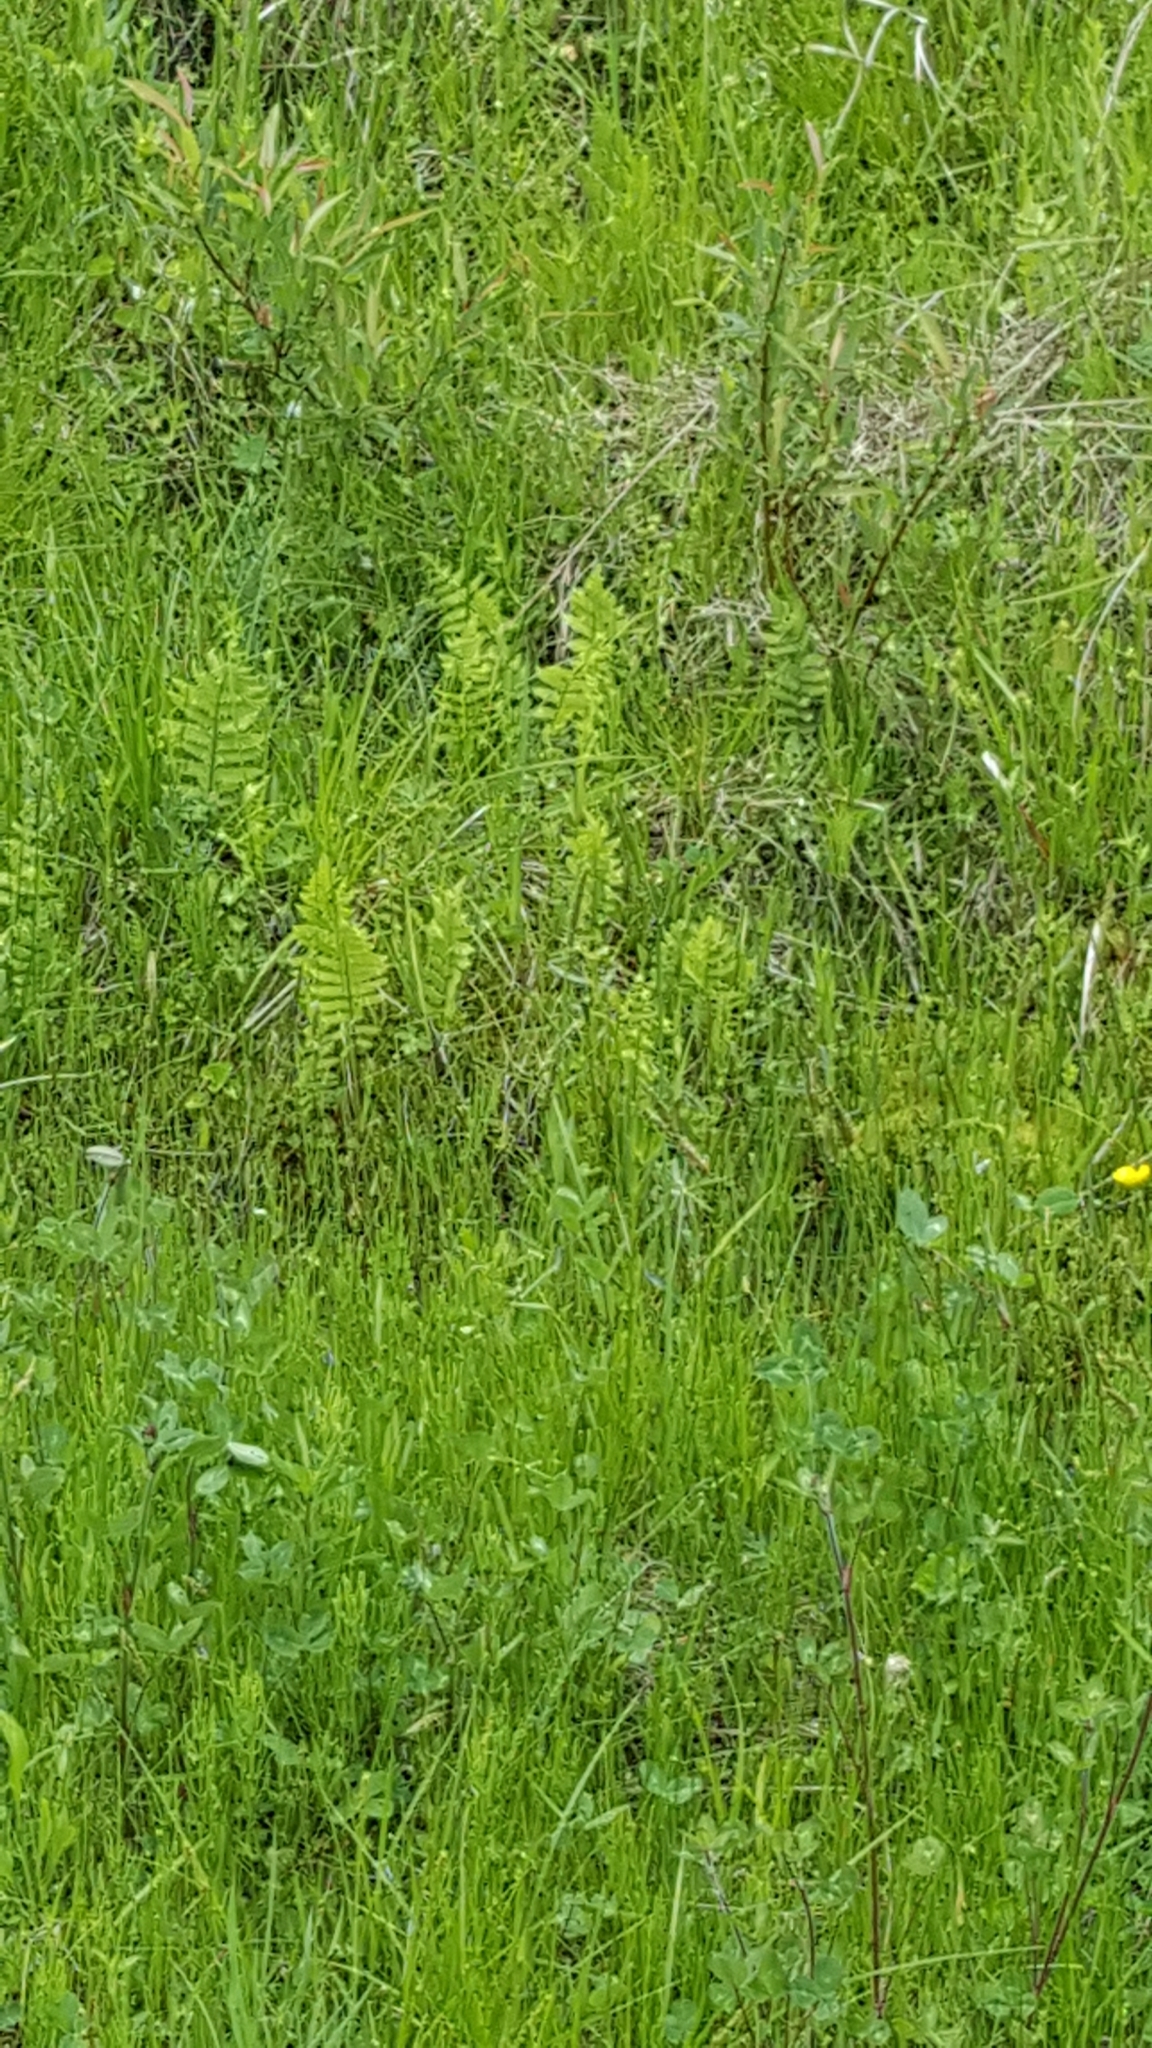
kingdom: Plantae
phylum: Tracheophyta
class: Polypodiopsida
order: Polypodiales
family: Thelypteridaceae
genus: Thelypteris
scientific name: Thelypteris palustris
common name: Marsh fern
